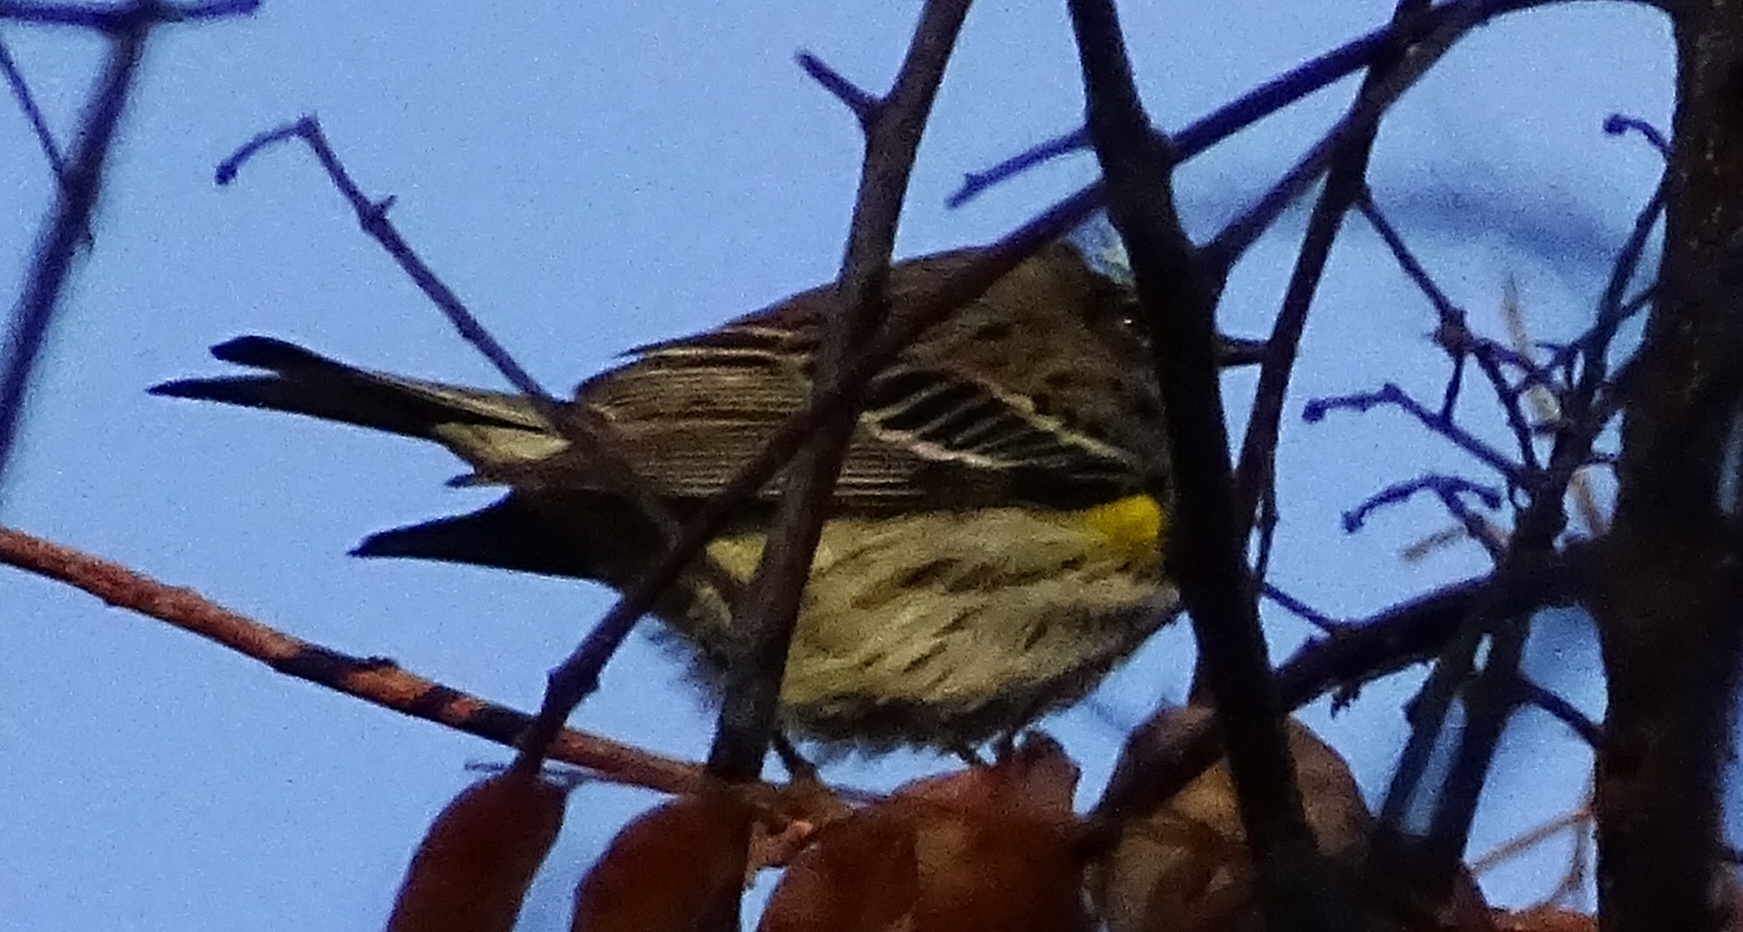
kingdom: Animalia
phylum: Chordata
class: Aves
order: Passeriformes
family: Parulidae
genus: Setophaga
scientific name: Setophaga coronata
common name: Myrtle warbler
